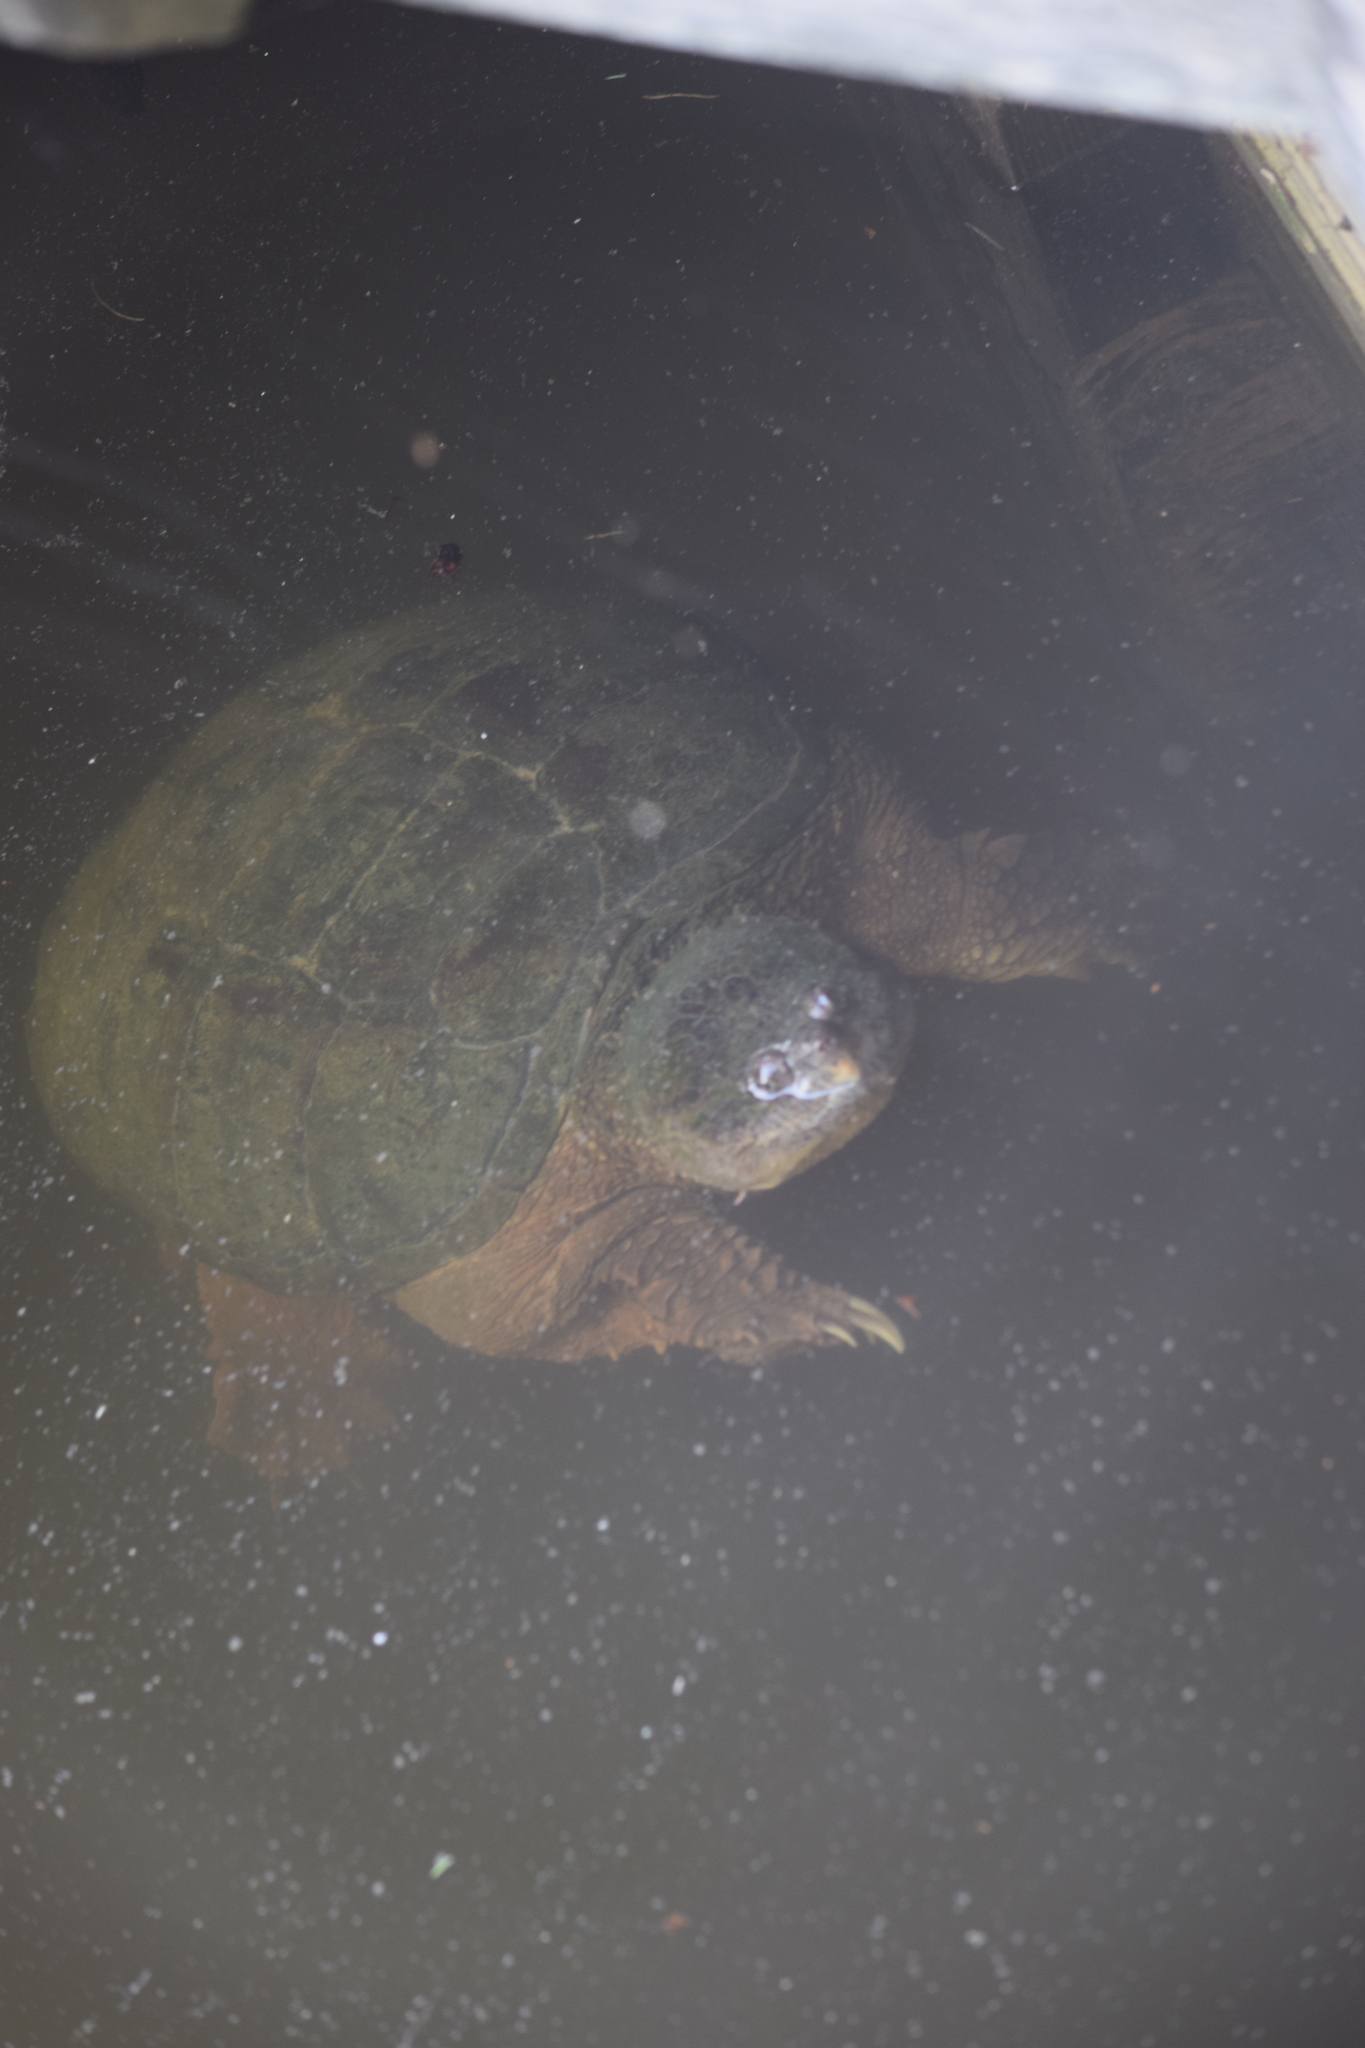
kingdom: Animalia
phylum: Chordata
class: Testudines
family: Chelydridae
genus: Chelydra
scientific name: Chelydra serpentina
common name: Common snapping turtle
